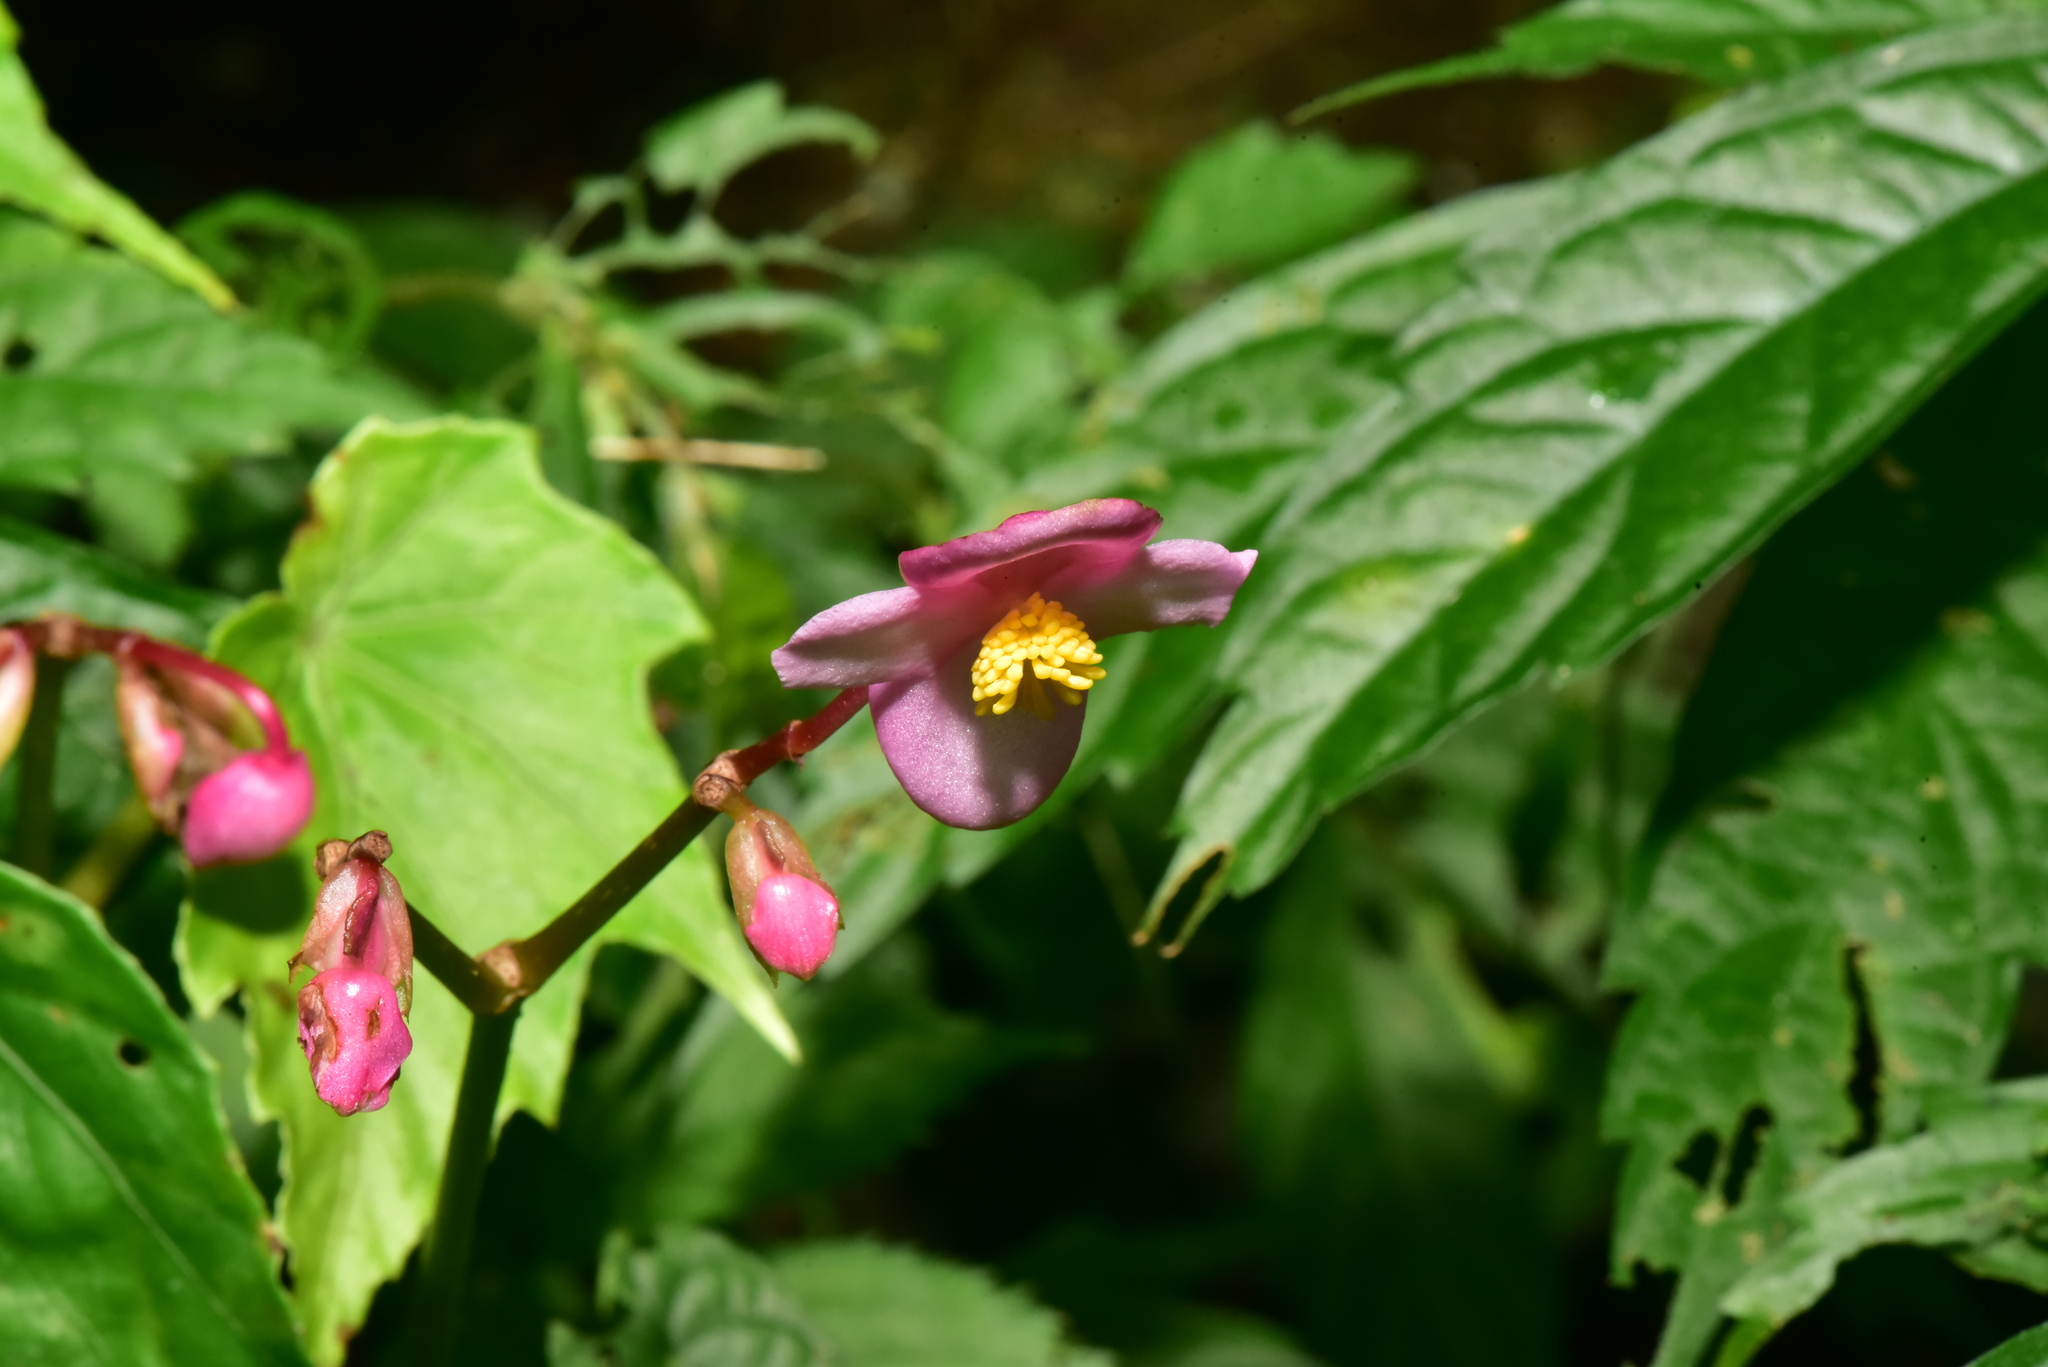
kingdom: Plantae
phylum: Tracheophyta
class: Magnoliopsida
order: Cucurbitales
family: Begoniaceae
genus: Begonia
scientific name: Begonia formosana
